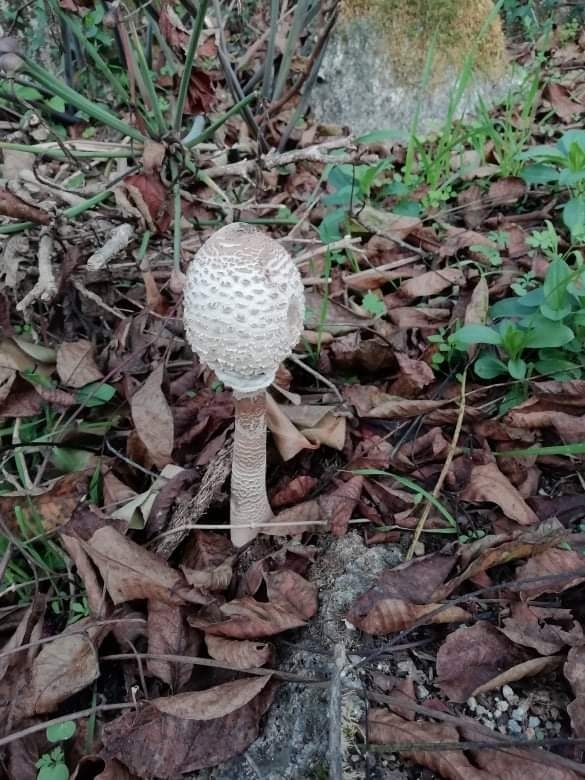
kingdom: Fungi
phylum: Basidiomycota
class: Agaricomycetes
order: Agaricales
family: Agaricaceae
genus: Macrolepiota
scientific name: Macrolepiota procera
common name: Parasol
